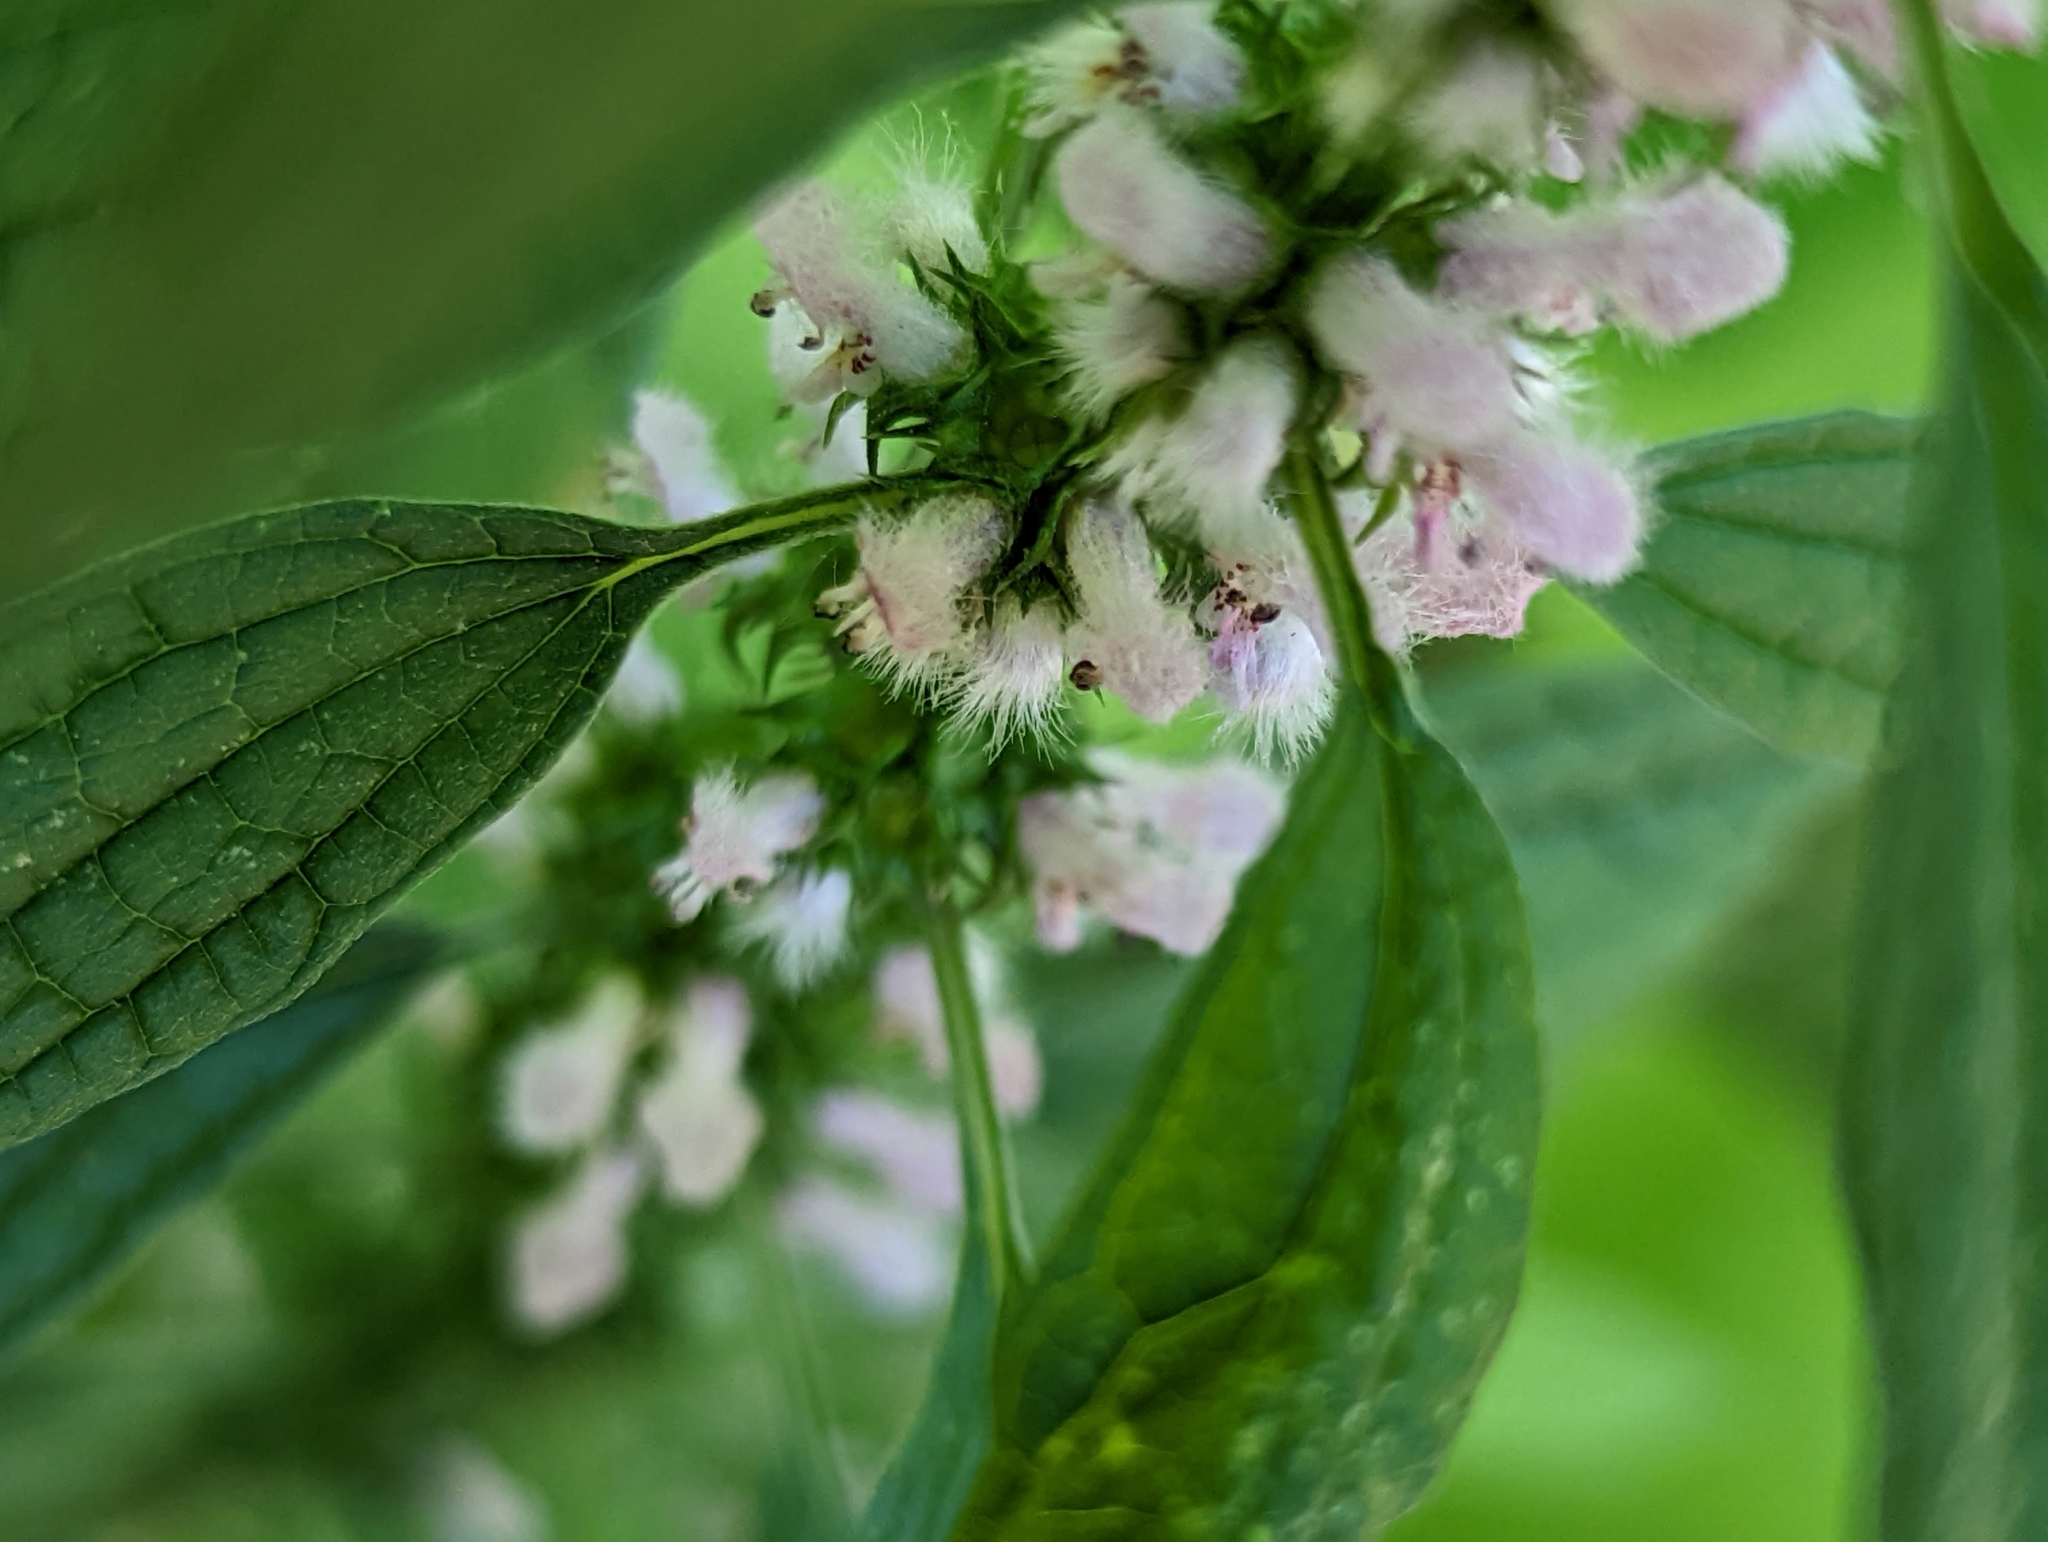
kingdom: Plantae
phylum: Tracheophyta
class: Magnoliopsida
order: Lamiales
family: Lamiaceae
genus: Leonurus
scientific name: Leonurus cardiaca
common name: Motherwort
